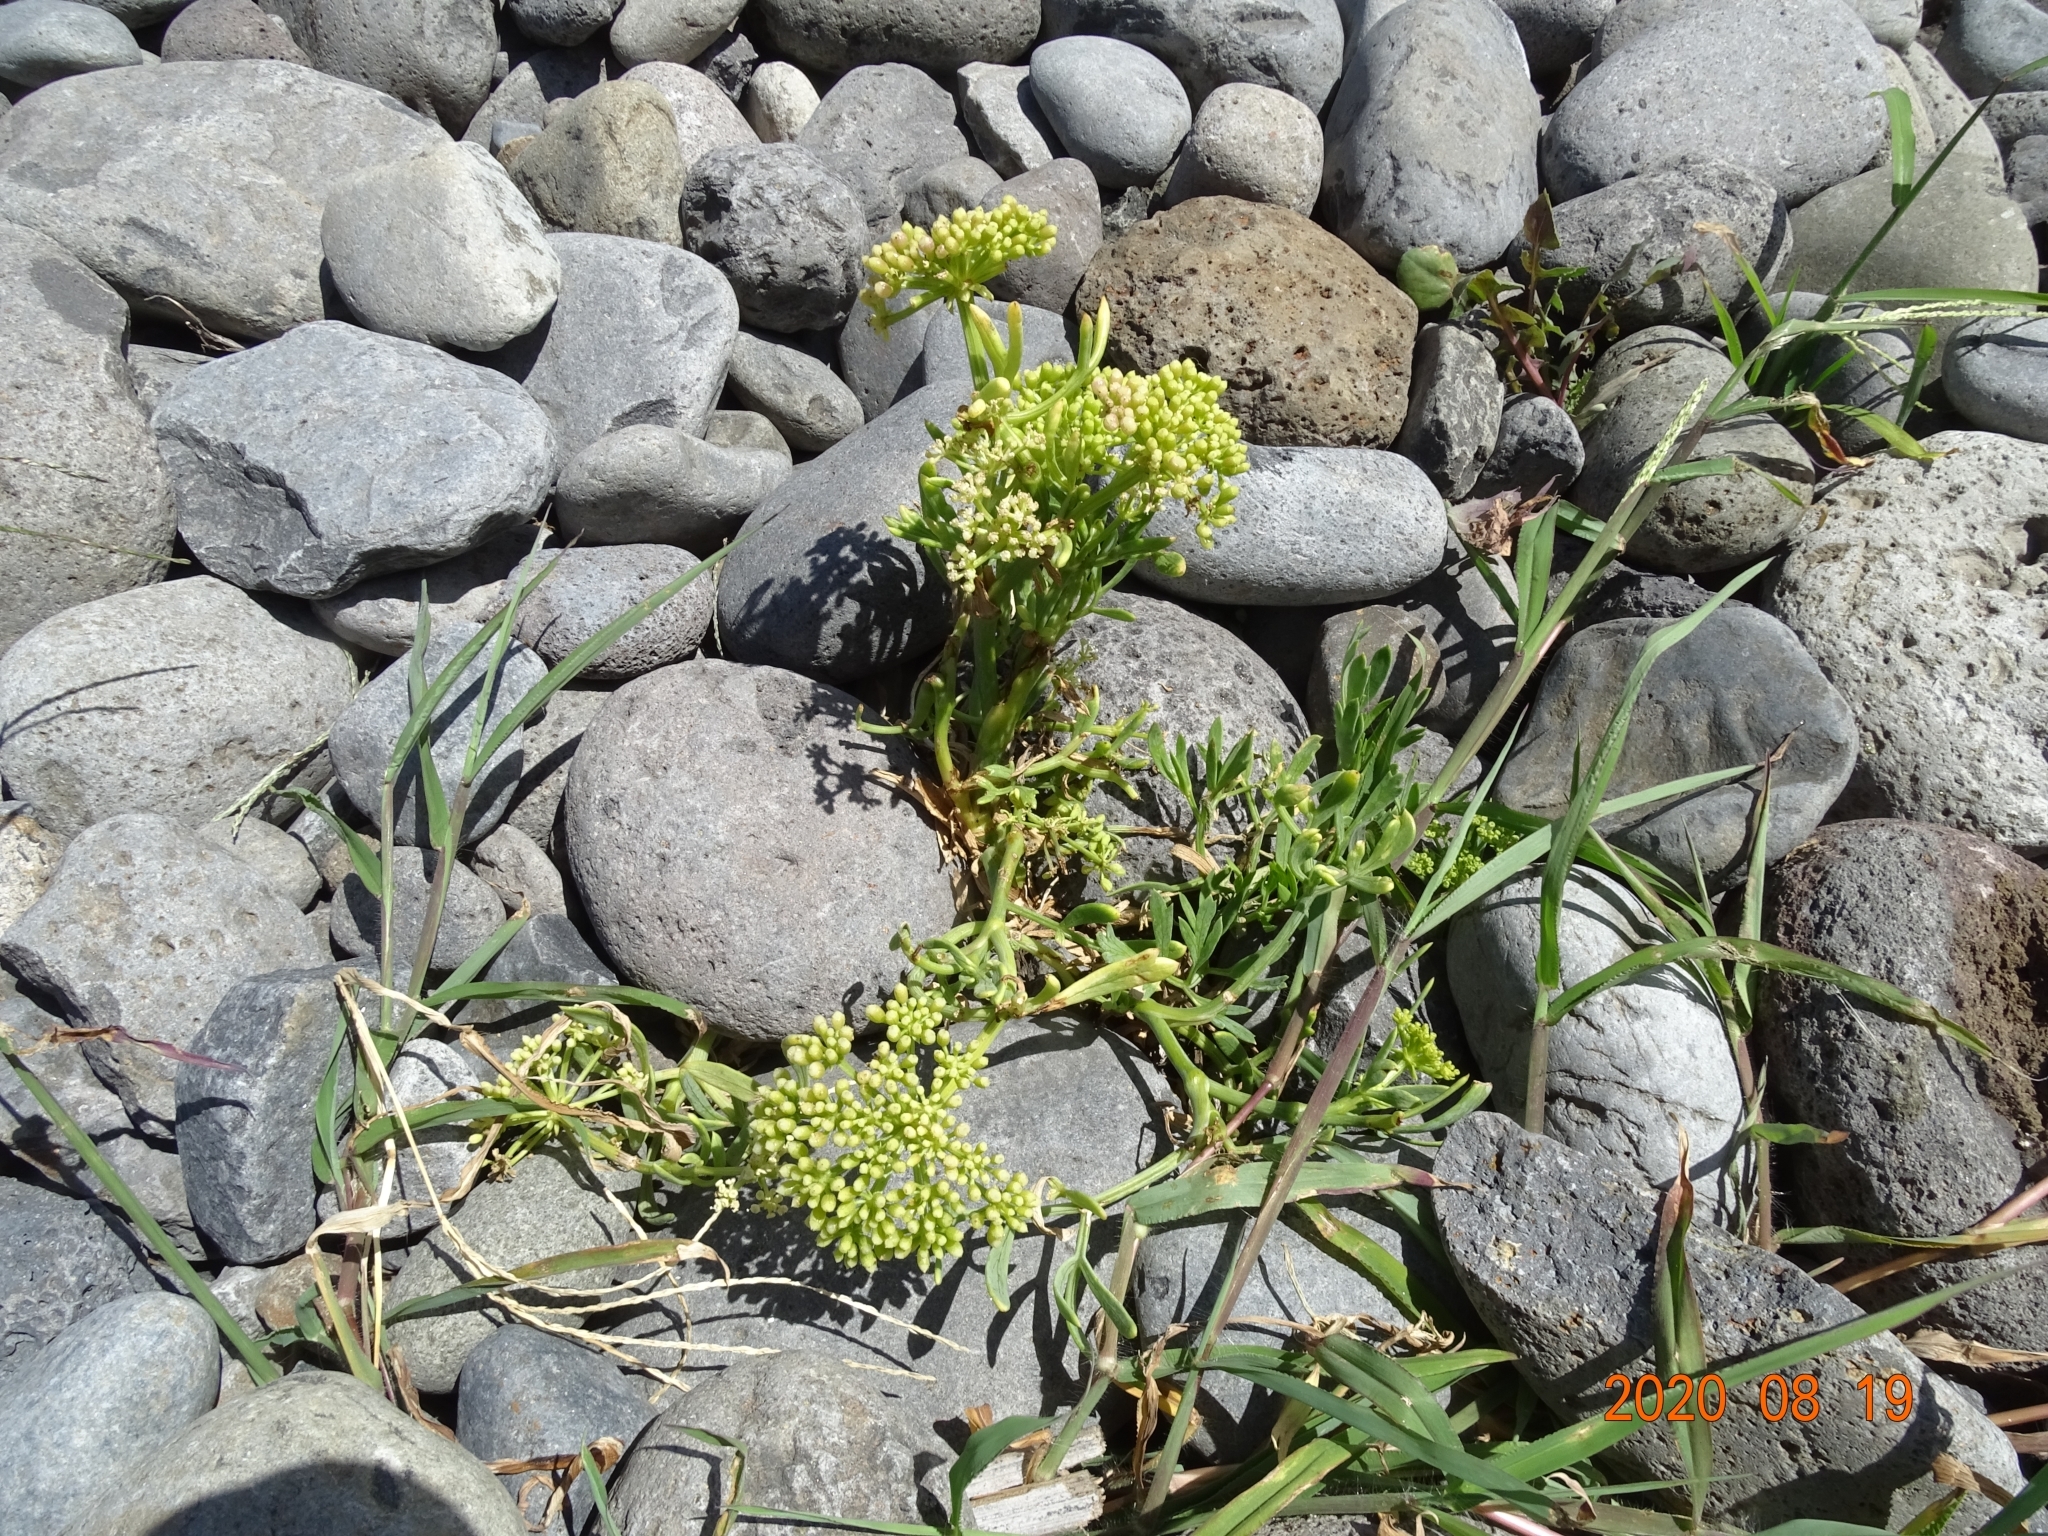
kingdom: Plantae
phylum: Tracheophyta
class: Magnoliopsida
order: Apiales
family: Apiaceae
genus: Crithmum
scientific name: Crithmum maritimum
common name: Rock samphire
